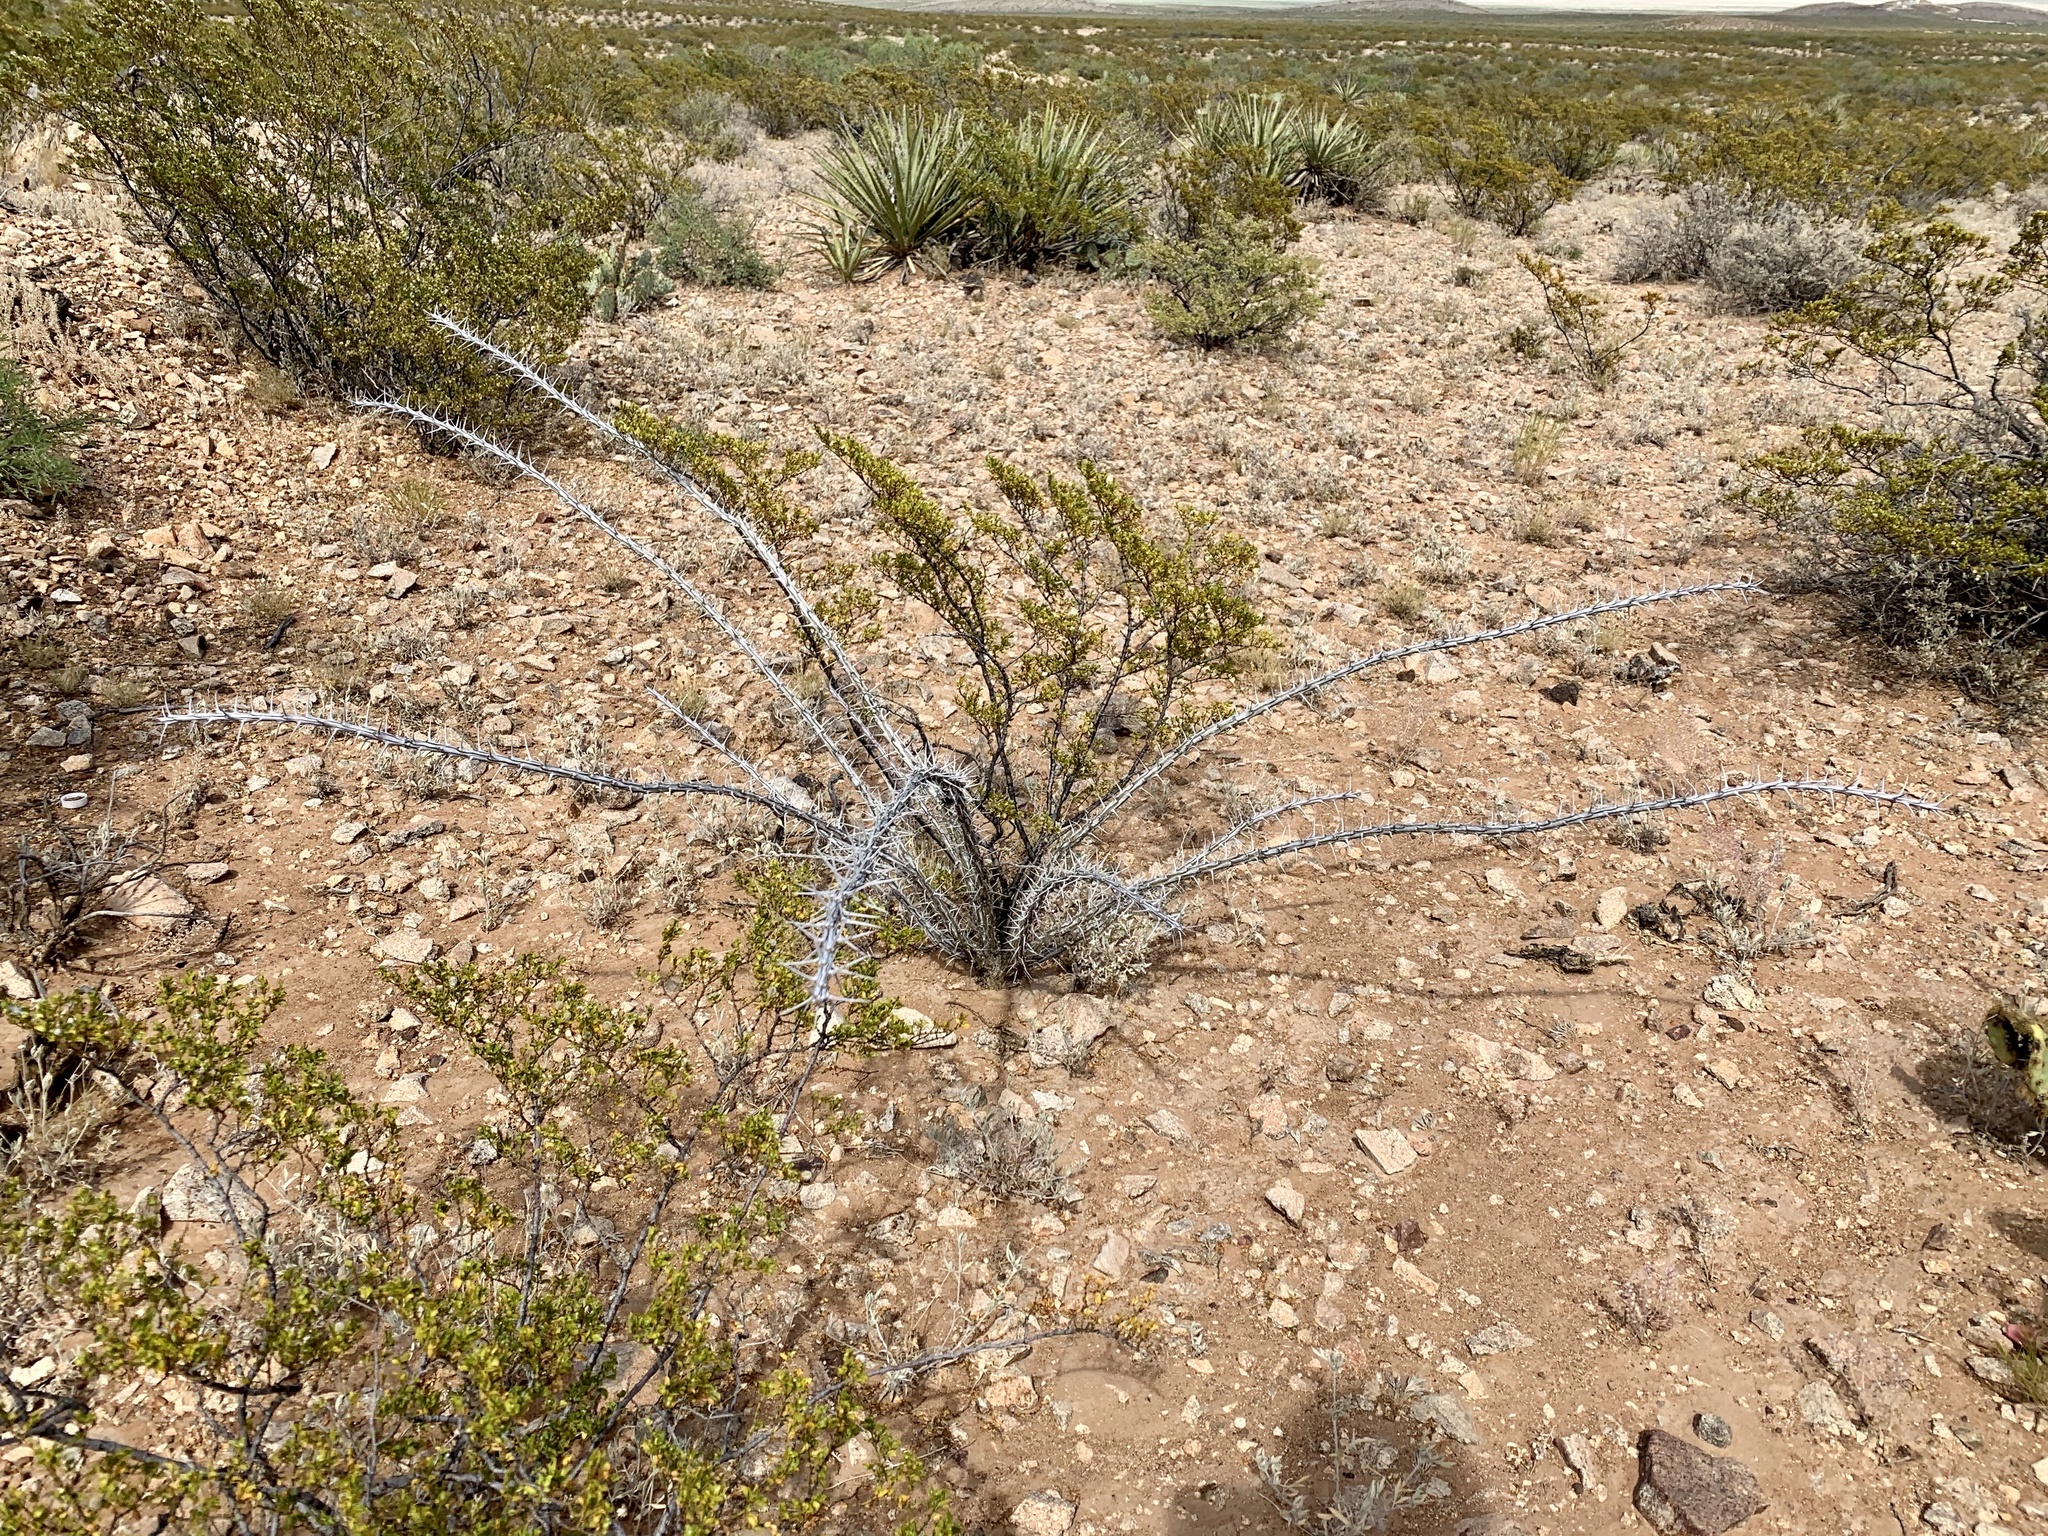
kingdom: Plantae
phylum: Tracheophyta
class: Magnoliopsida
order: Ericales
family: Fouquieriaceae
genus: Fouquieria
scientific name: Fouquieria splendens
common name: Vine-cactus
